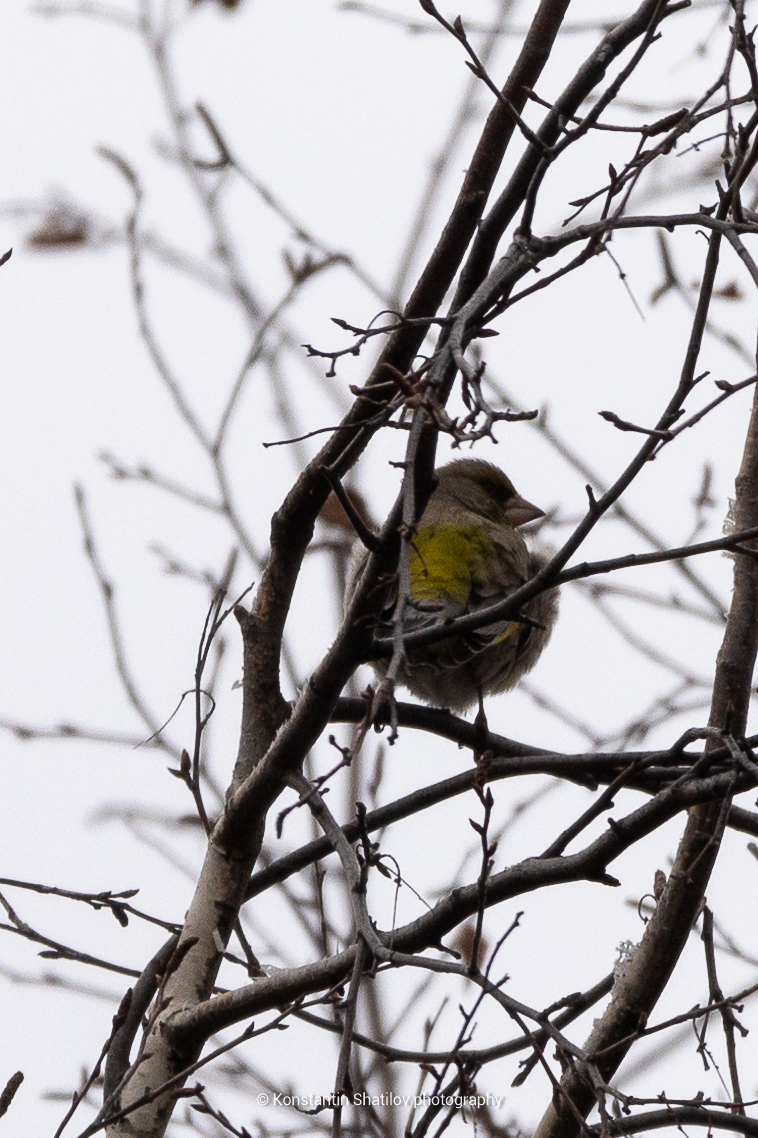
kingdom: Plantae
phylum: Tracheophyta
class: Liliopsida
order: Poales
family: Poaceae
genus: Chloris
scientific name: Chloris chloris
